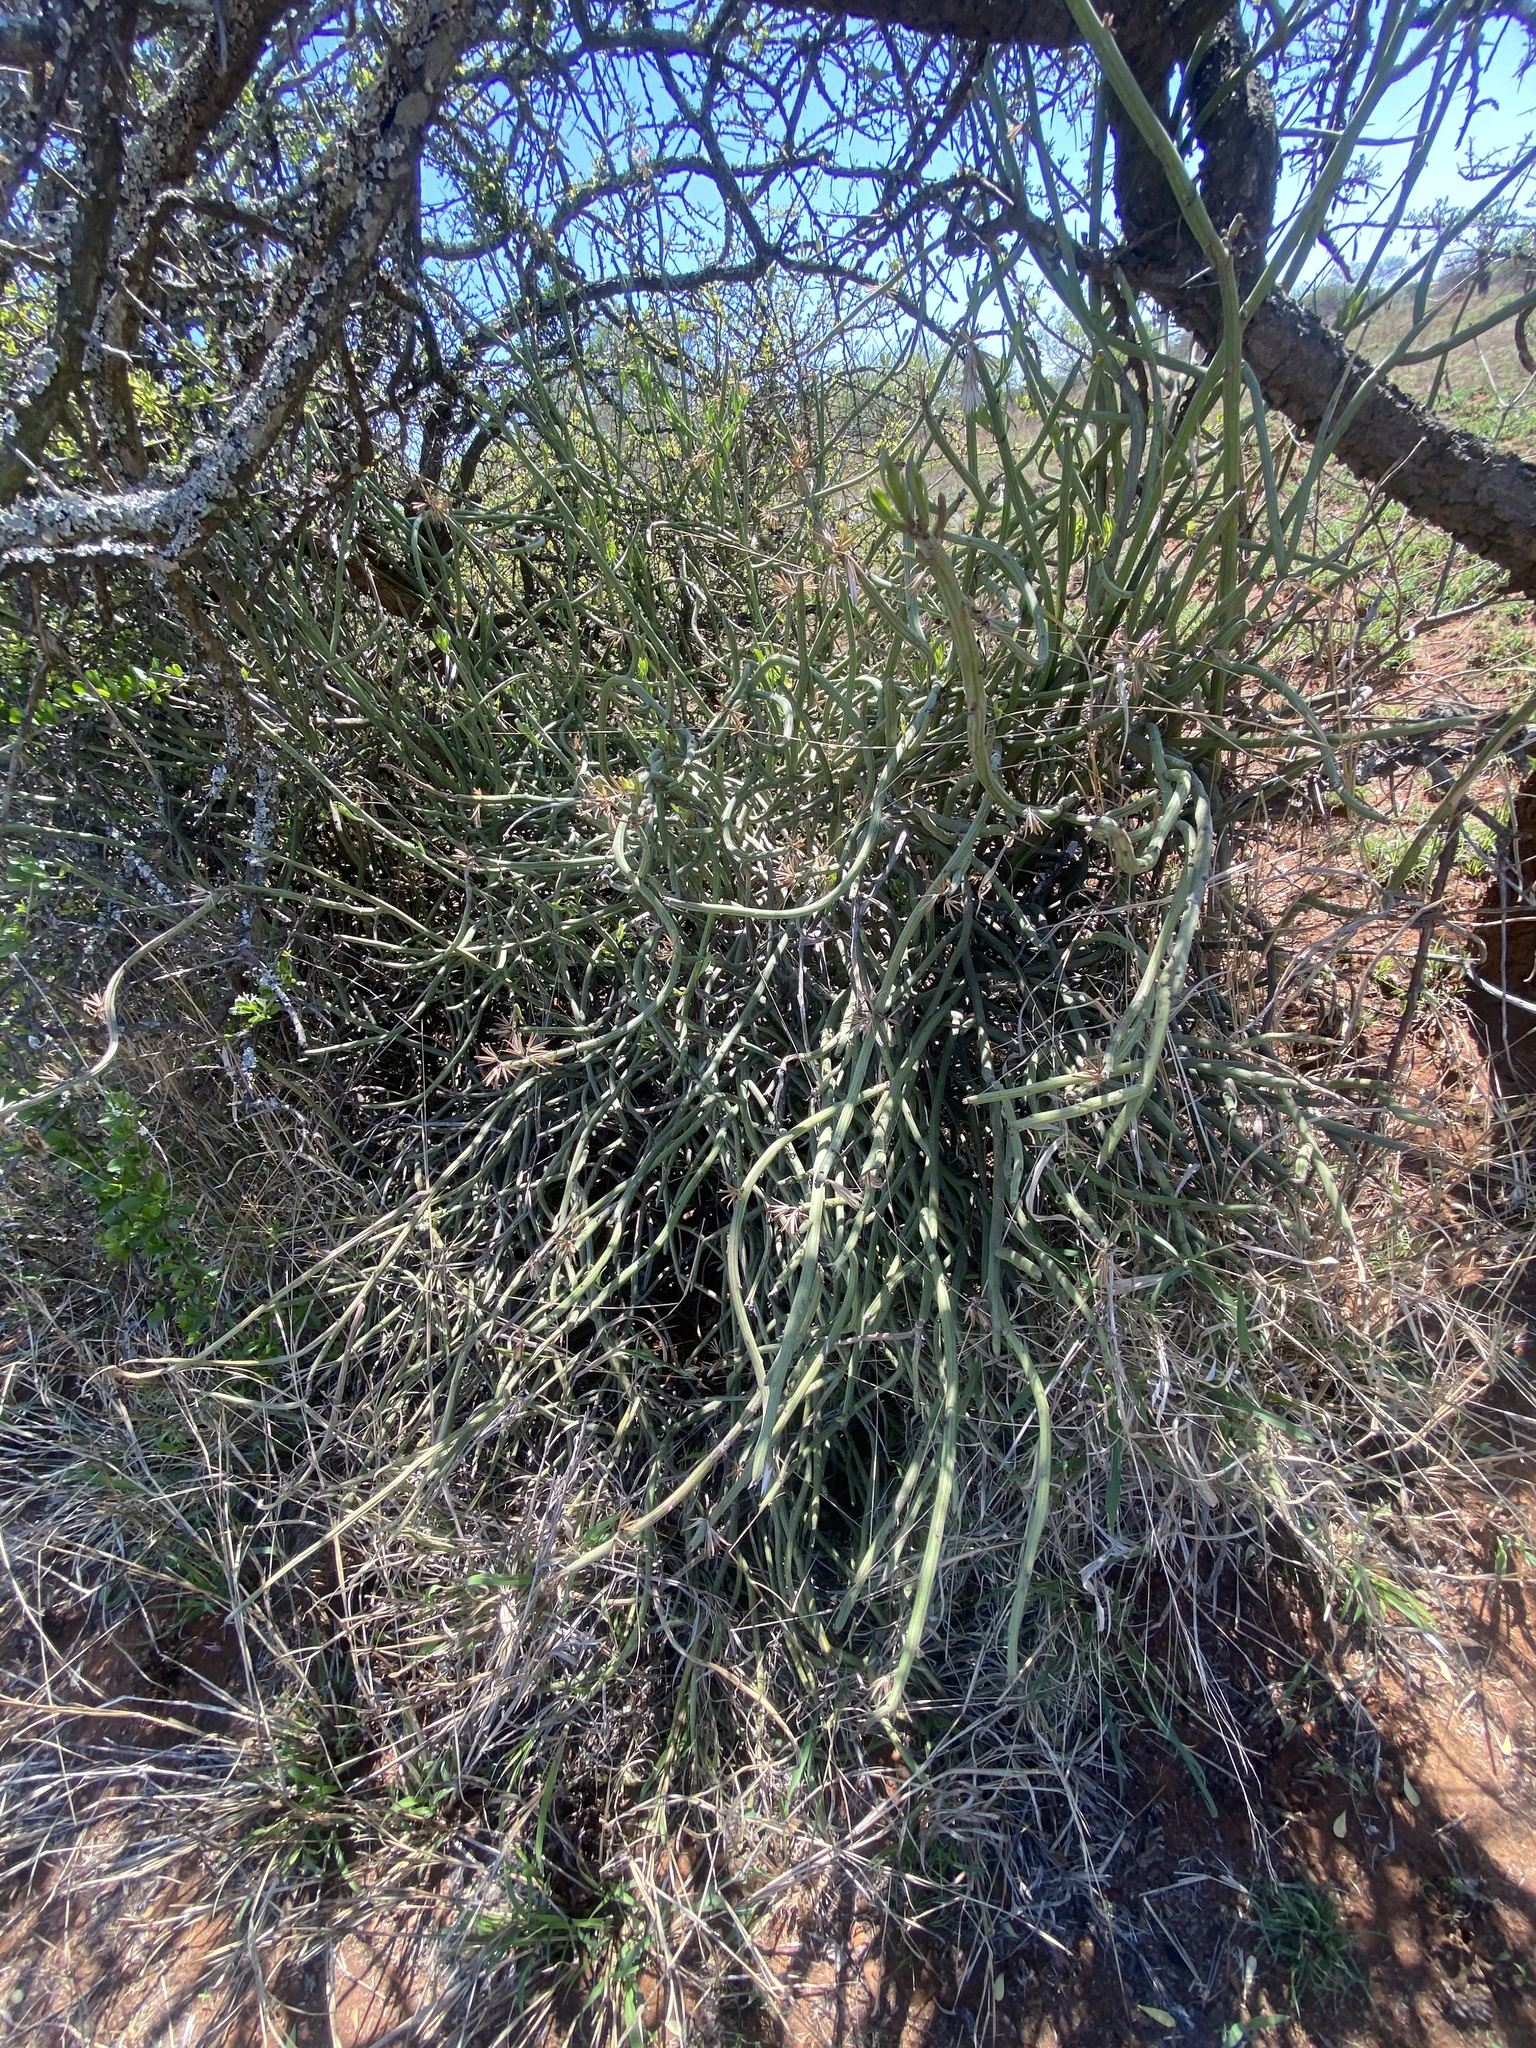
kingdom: Plantae
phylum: Tracheophyta
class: Magnoliopsida
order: Asterales
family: Asteraceae
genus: Curio
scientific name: Curio avasimontanus
